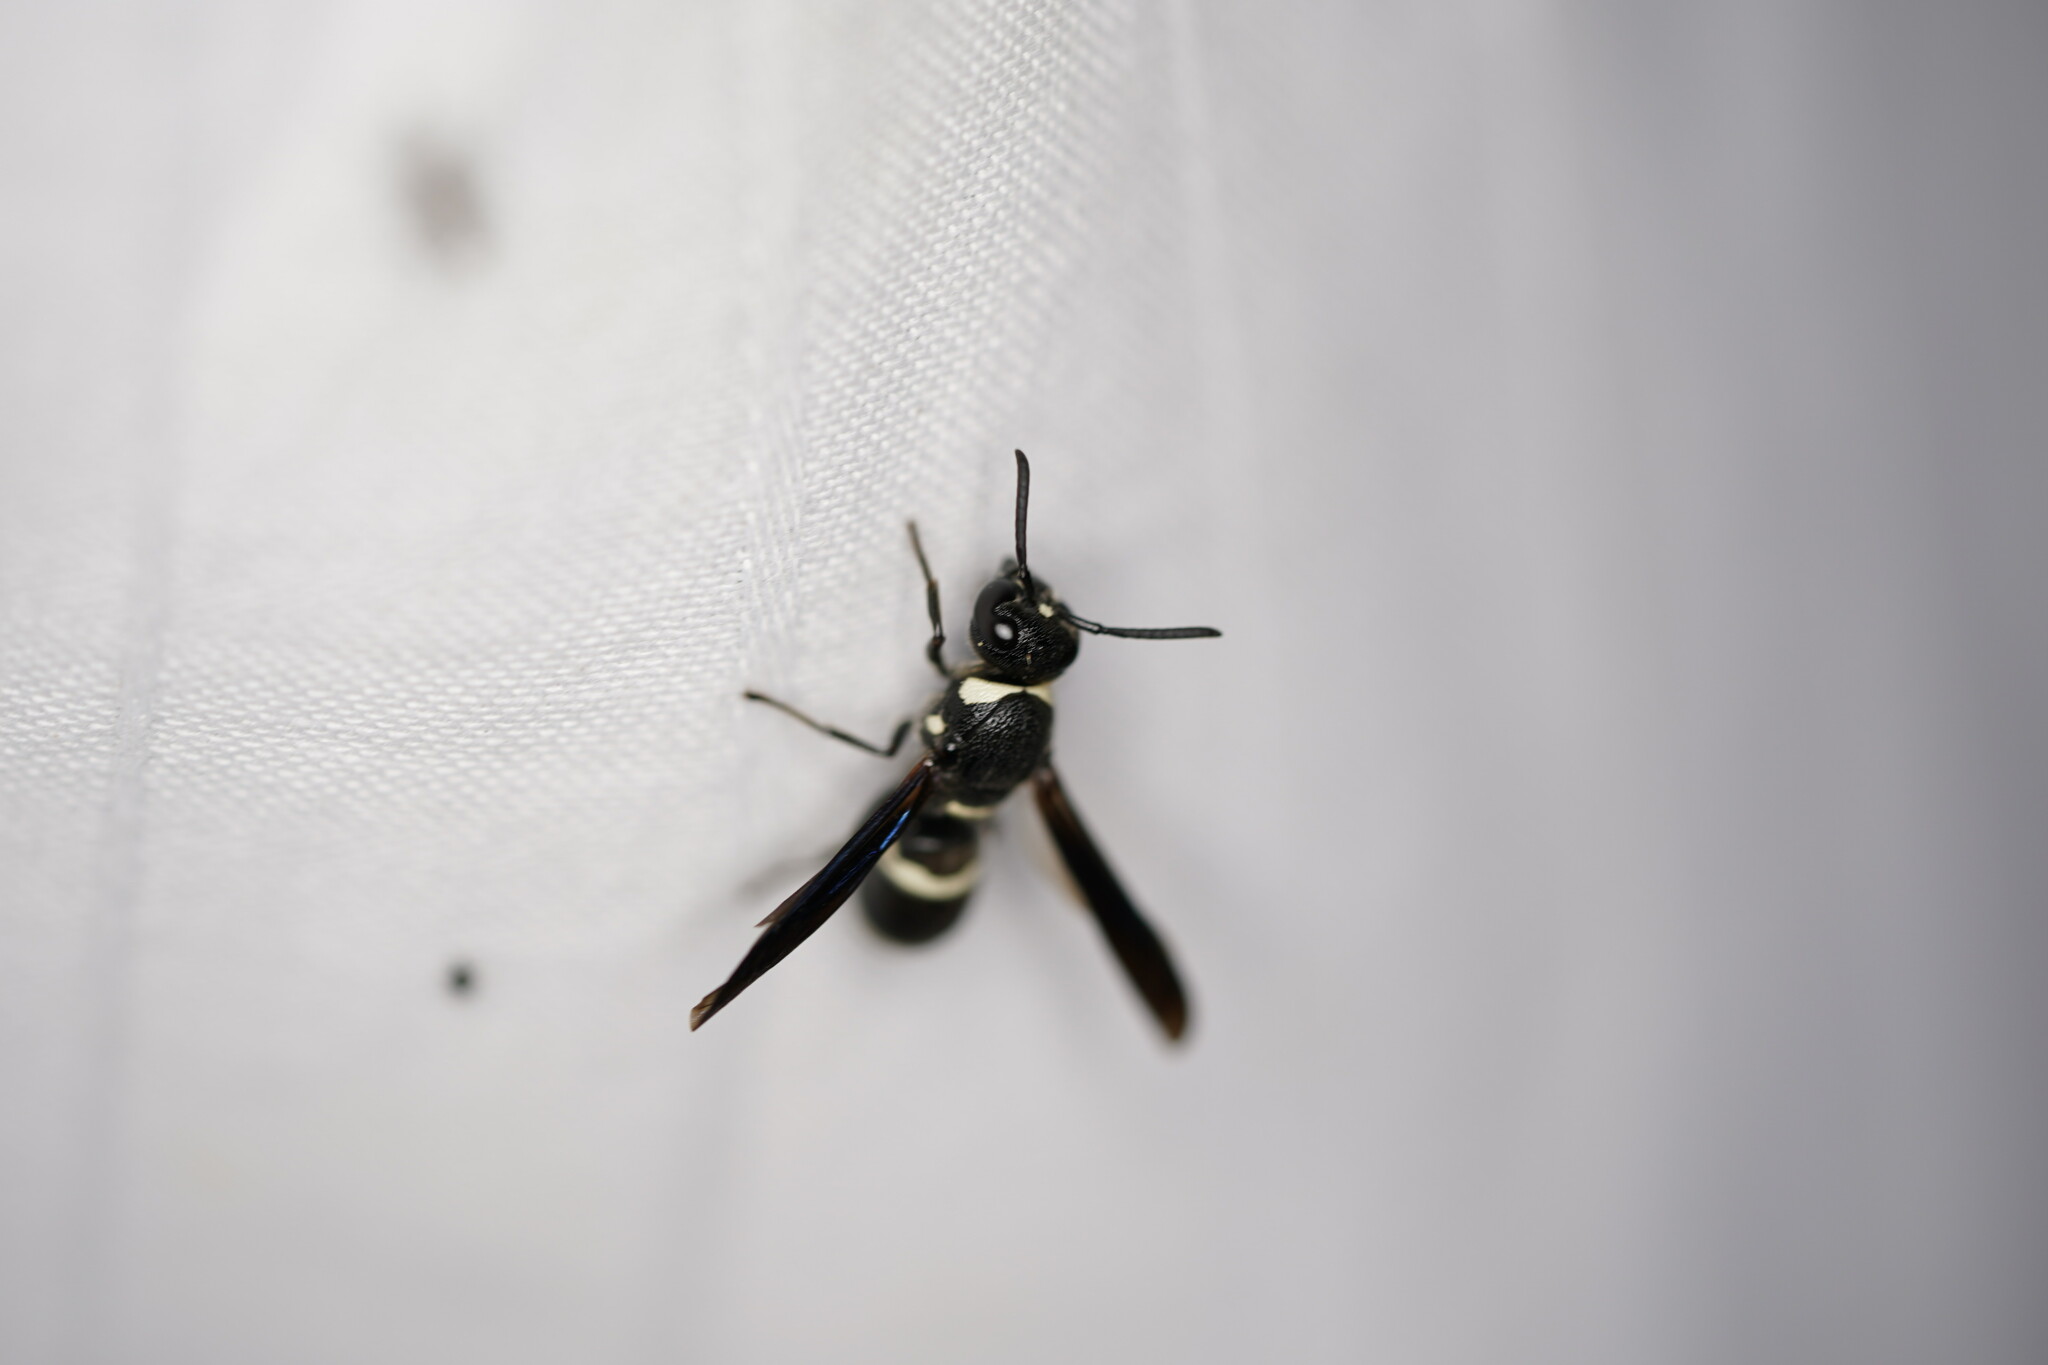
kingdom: Animalia
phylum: Arthropoda
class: Insecta
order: Hymenoptera
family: Eumenidae
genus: Monobia
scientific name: Monobia quadridens
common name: Four-toothed mason wasp
